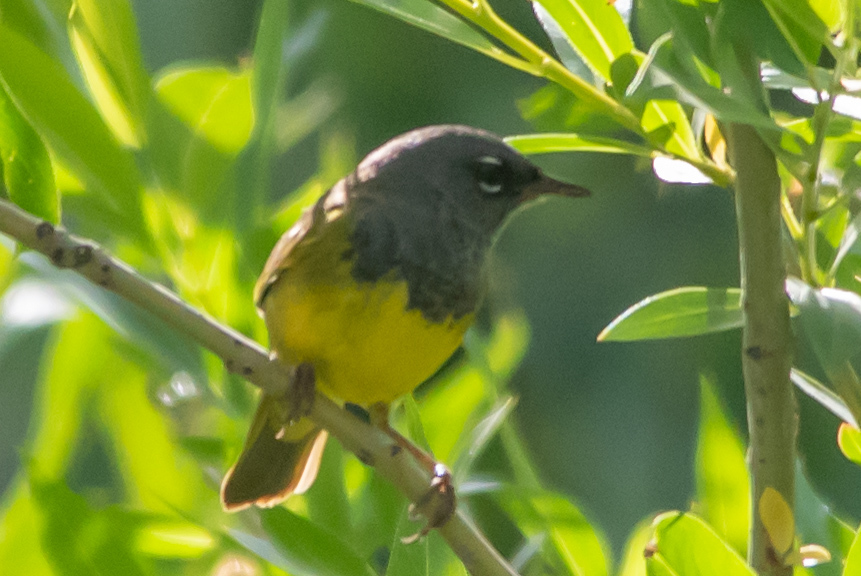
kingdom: Animalia
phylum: Chordata
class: Aves
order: Passeriformes
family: Parulidae
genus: Geothlypis
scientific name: Geothlypis tolmiei
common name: Macgillivray's warbler
